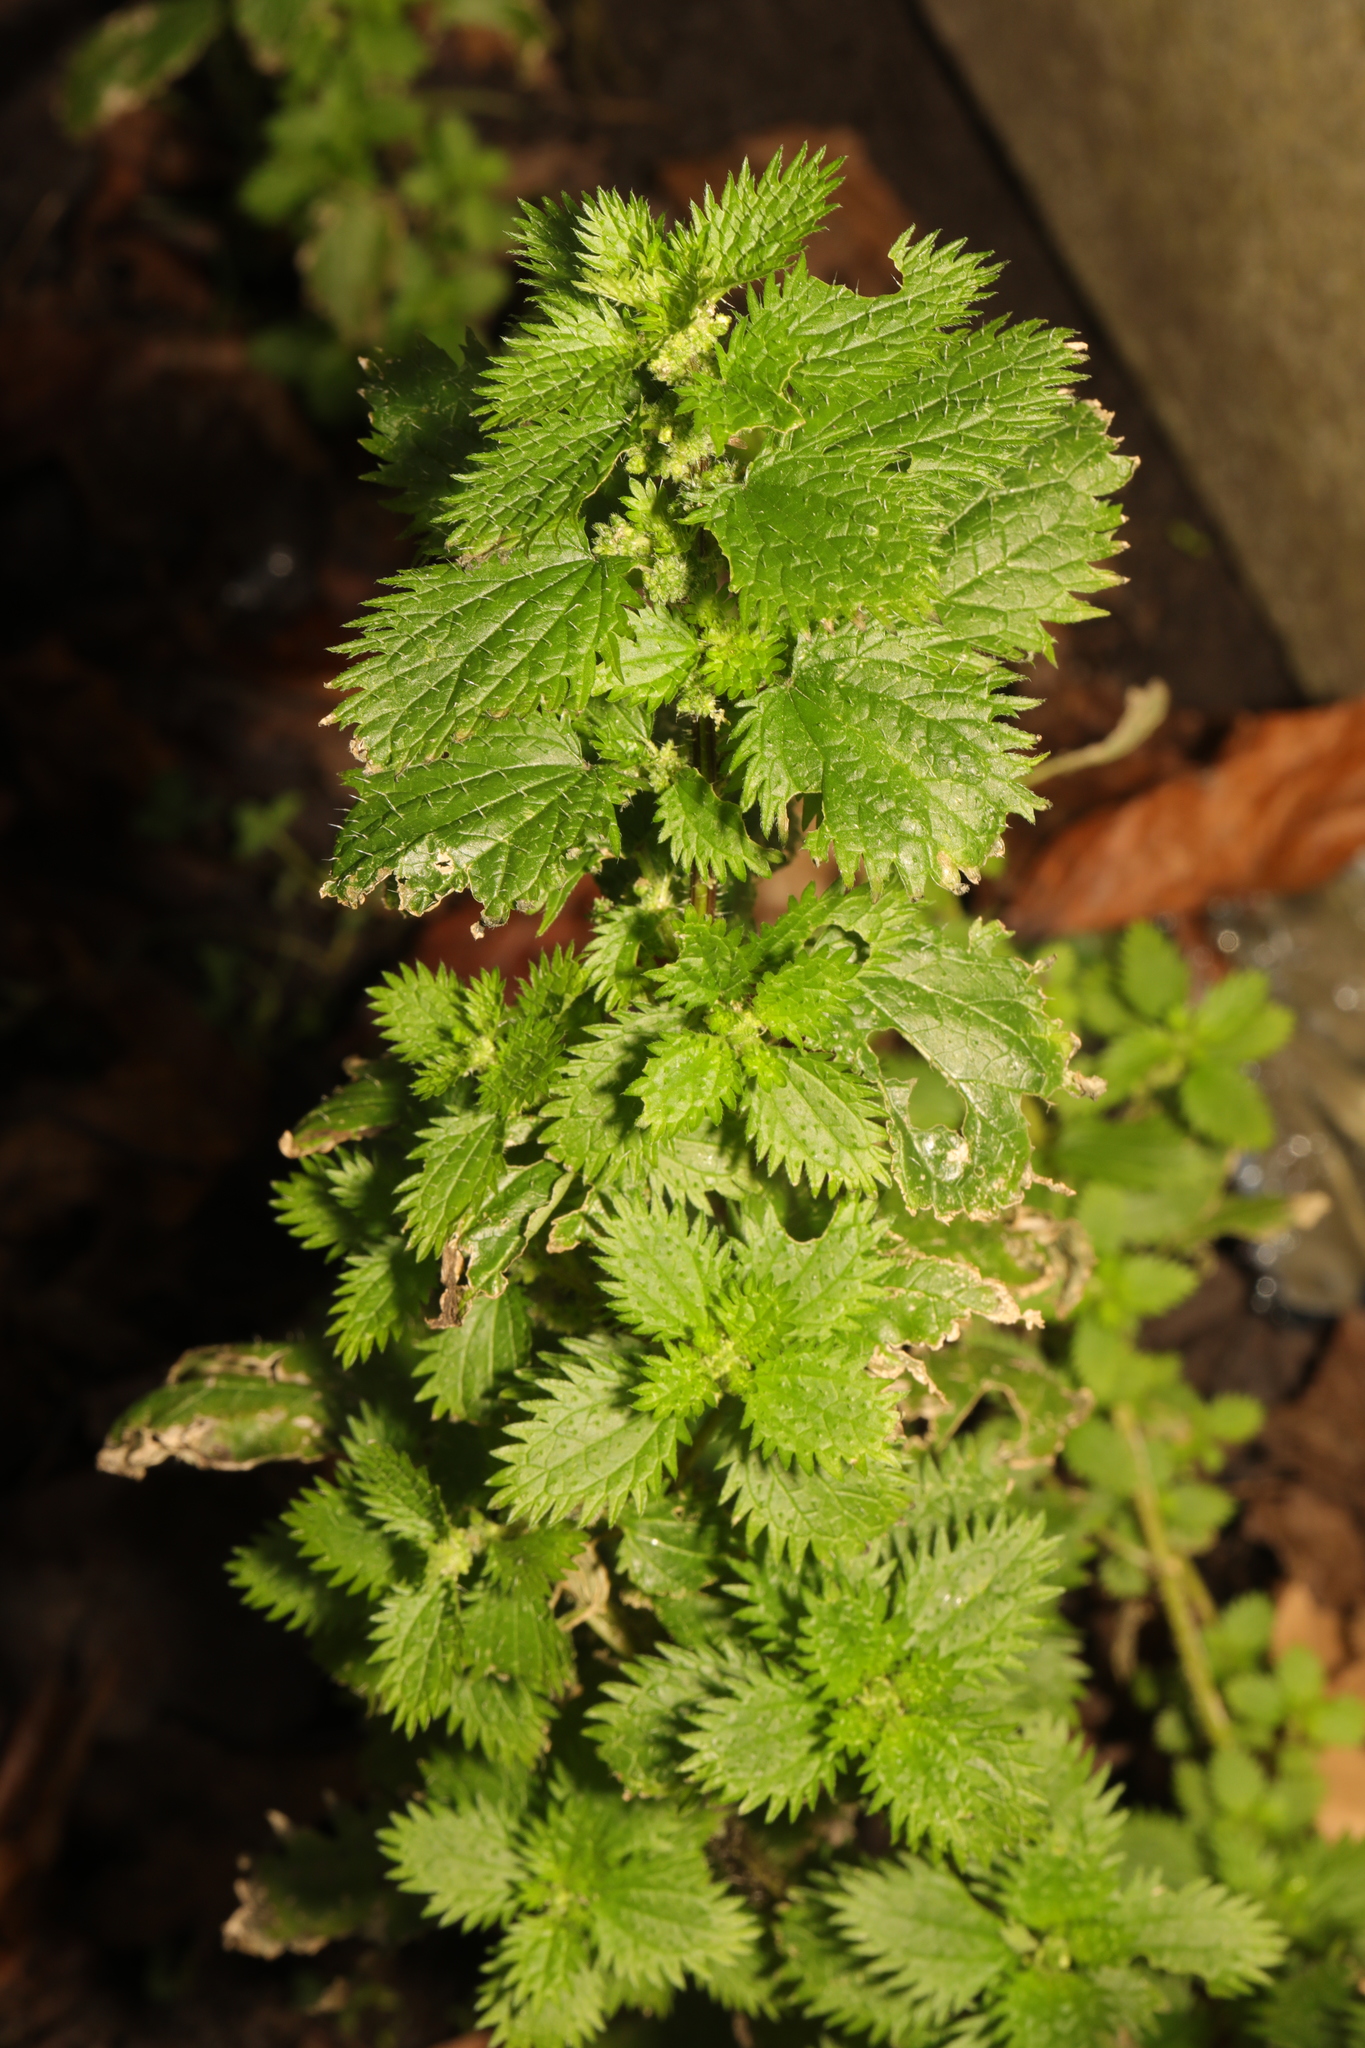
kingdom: Plantae
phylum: Tracheophyta
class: Magnoliopsida
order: Rosales
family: Urticaceae
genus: Urtica
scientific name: Urtica urens
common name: Dwarf nettle
